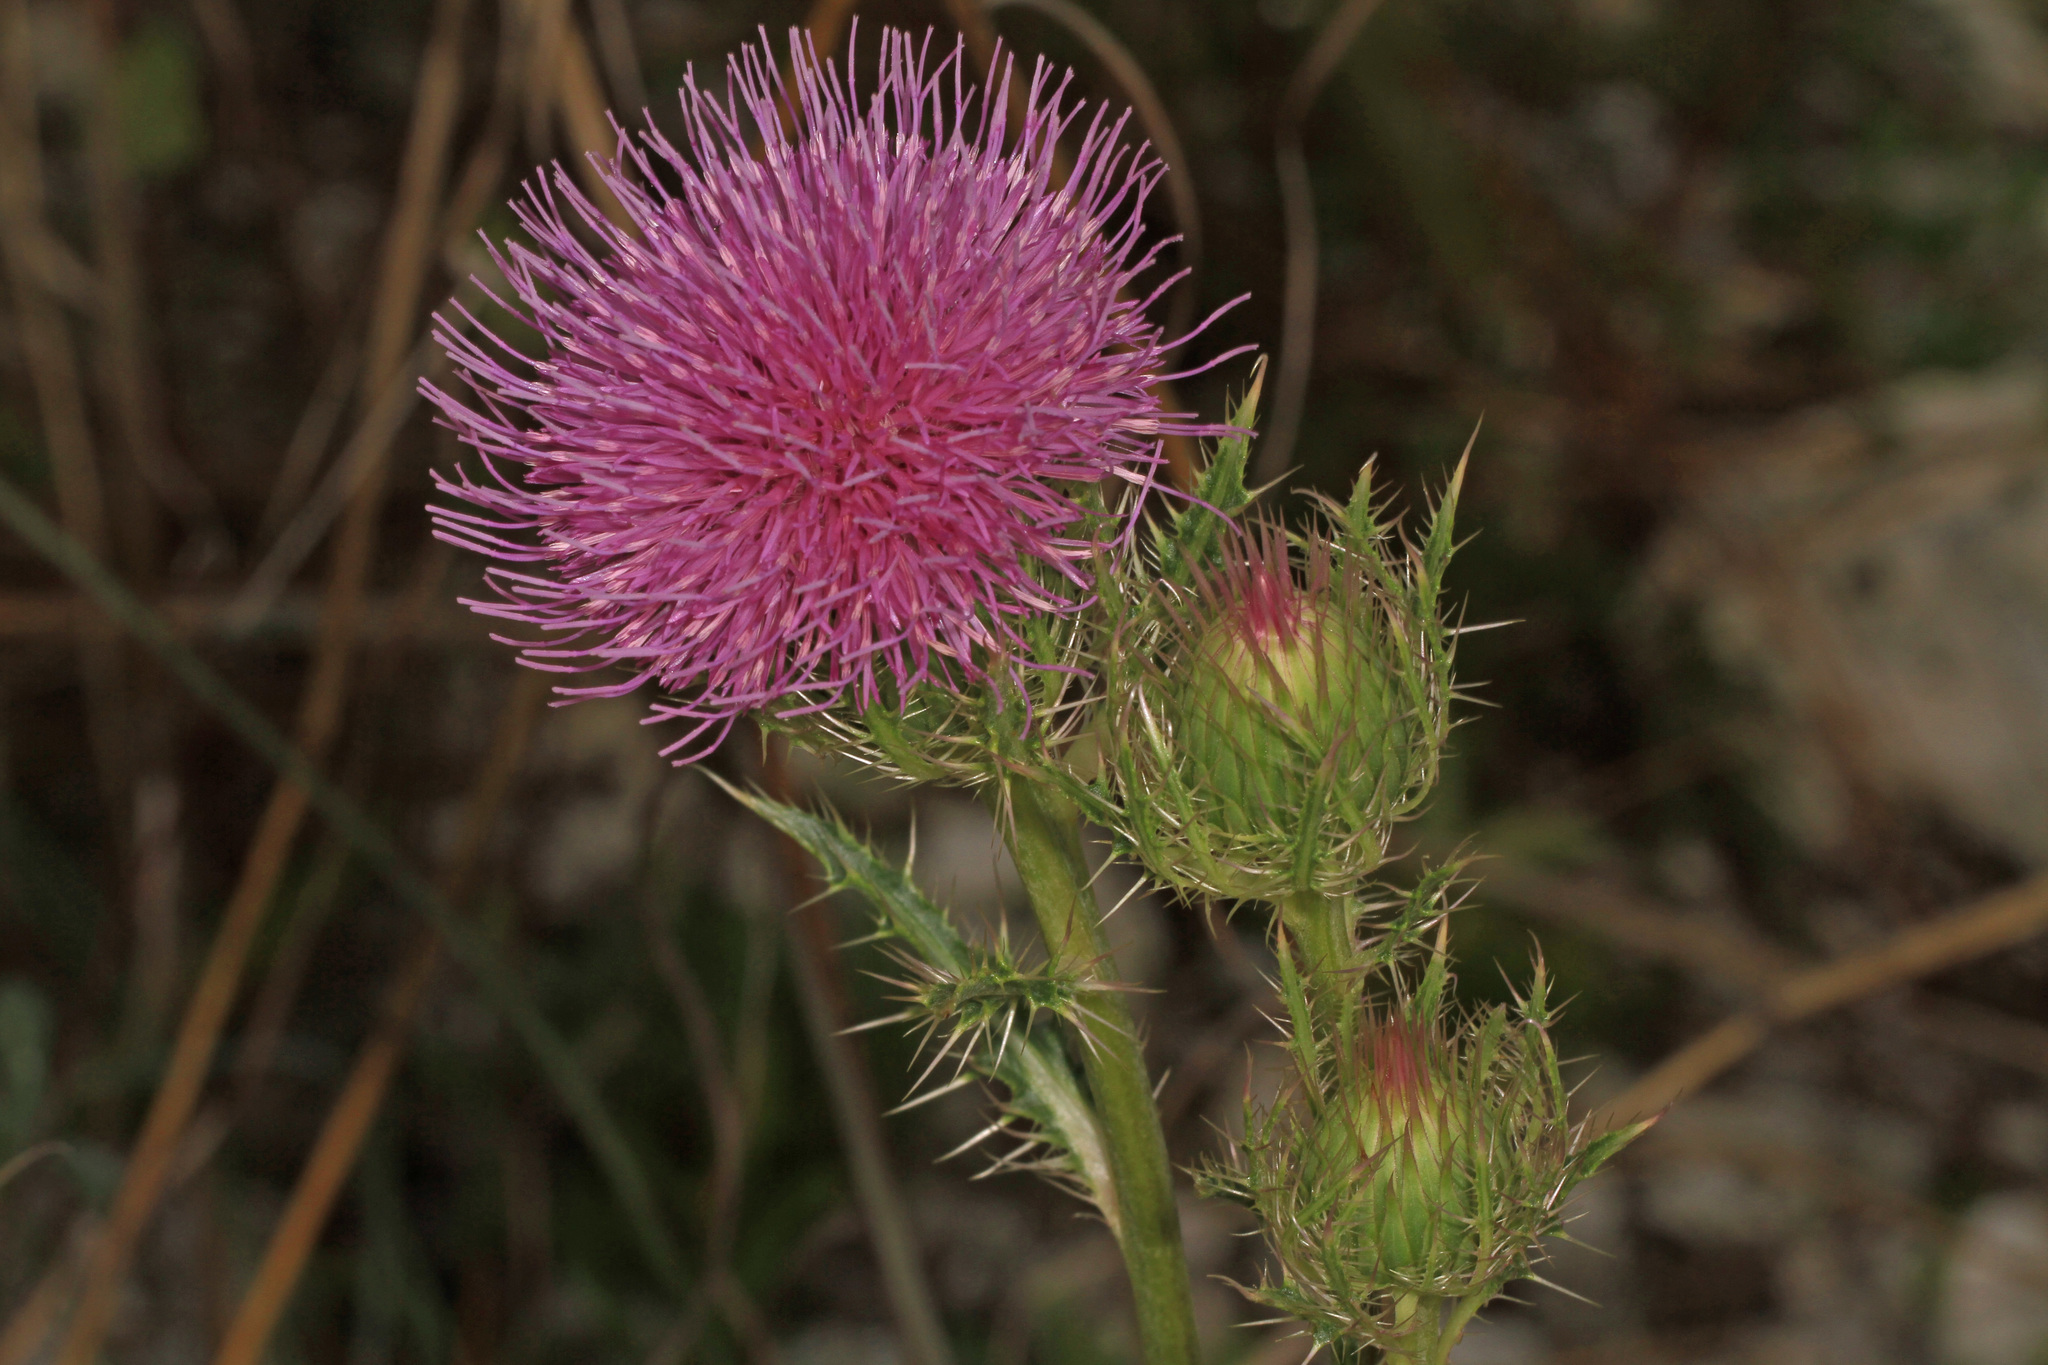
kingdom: Plantae
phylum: Tracheophyta
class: Magnoliopsida
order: Asterales
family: Asteraceae
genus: Cirsium
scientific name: Cirsium horridulum
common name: Bristly thistle
